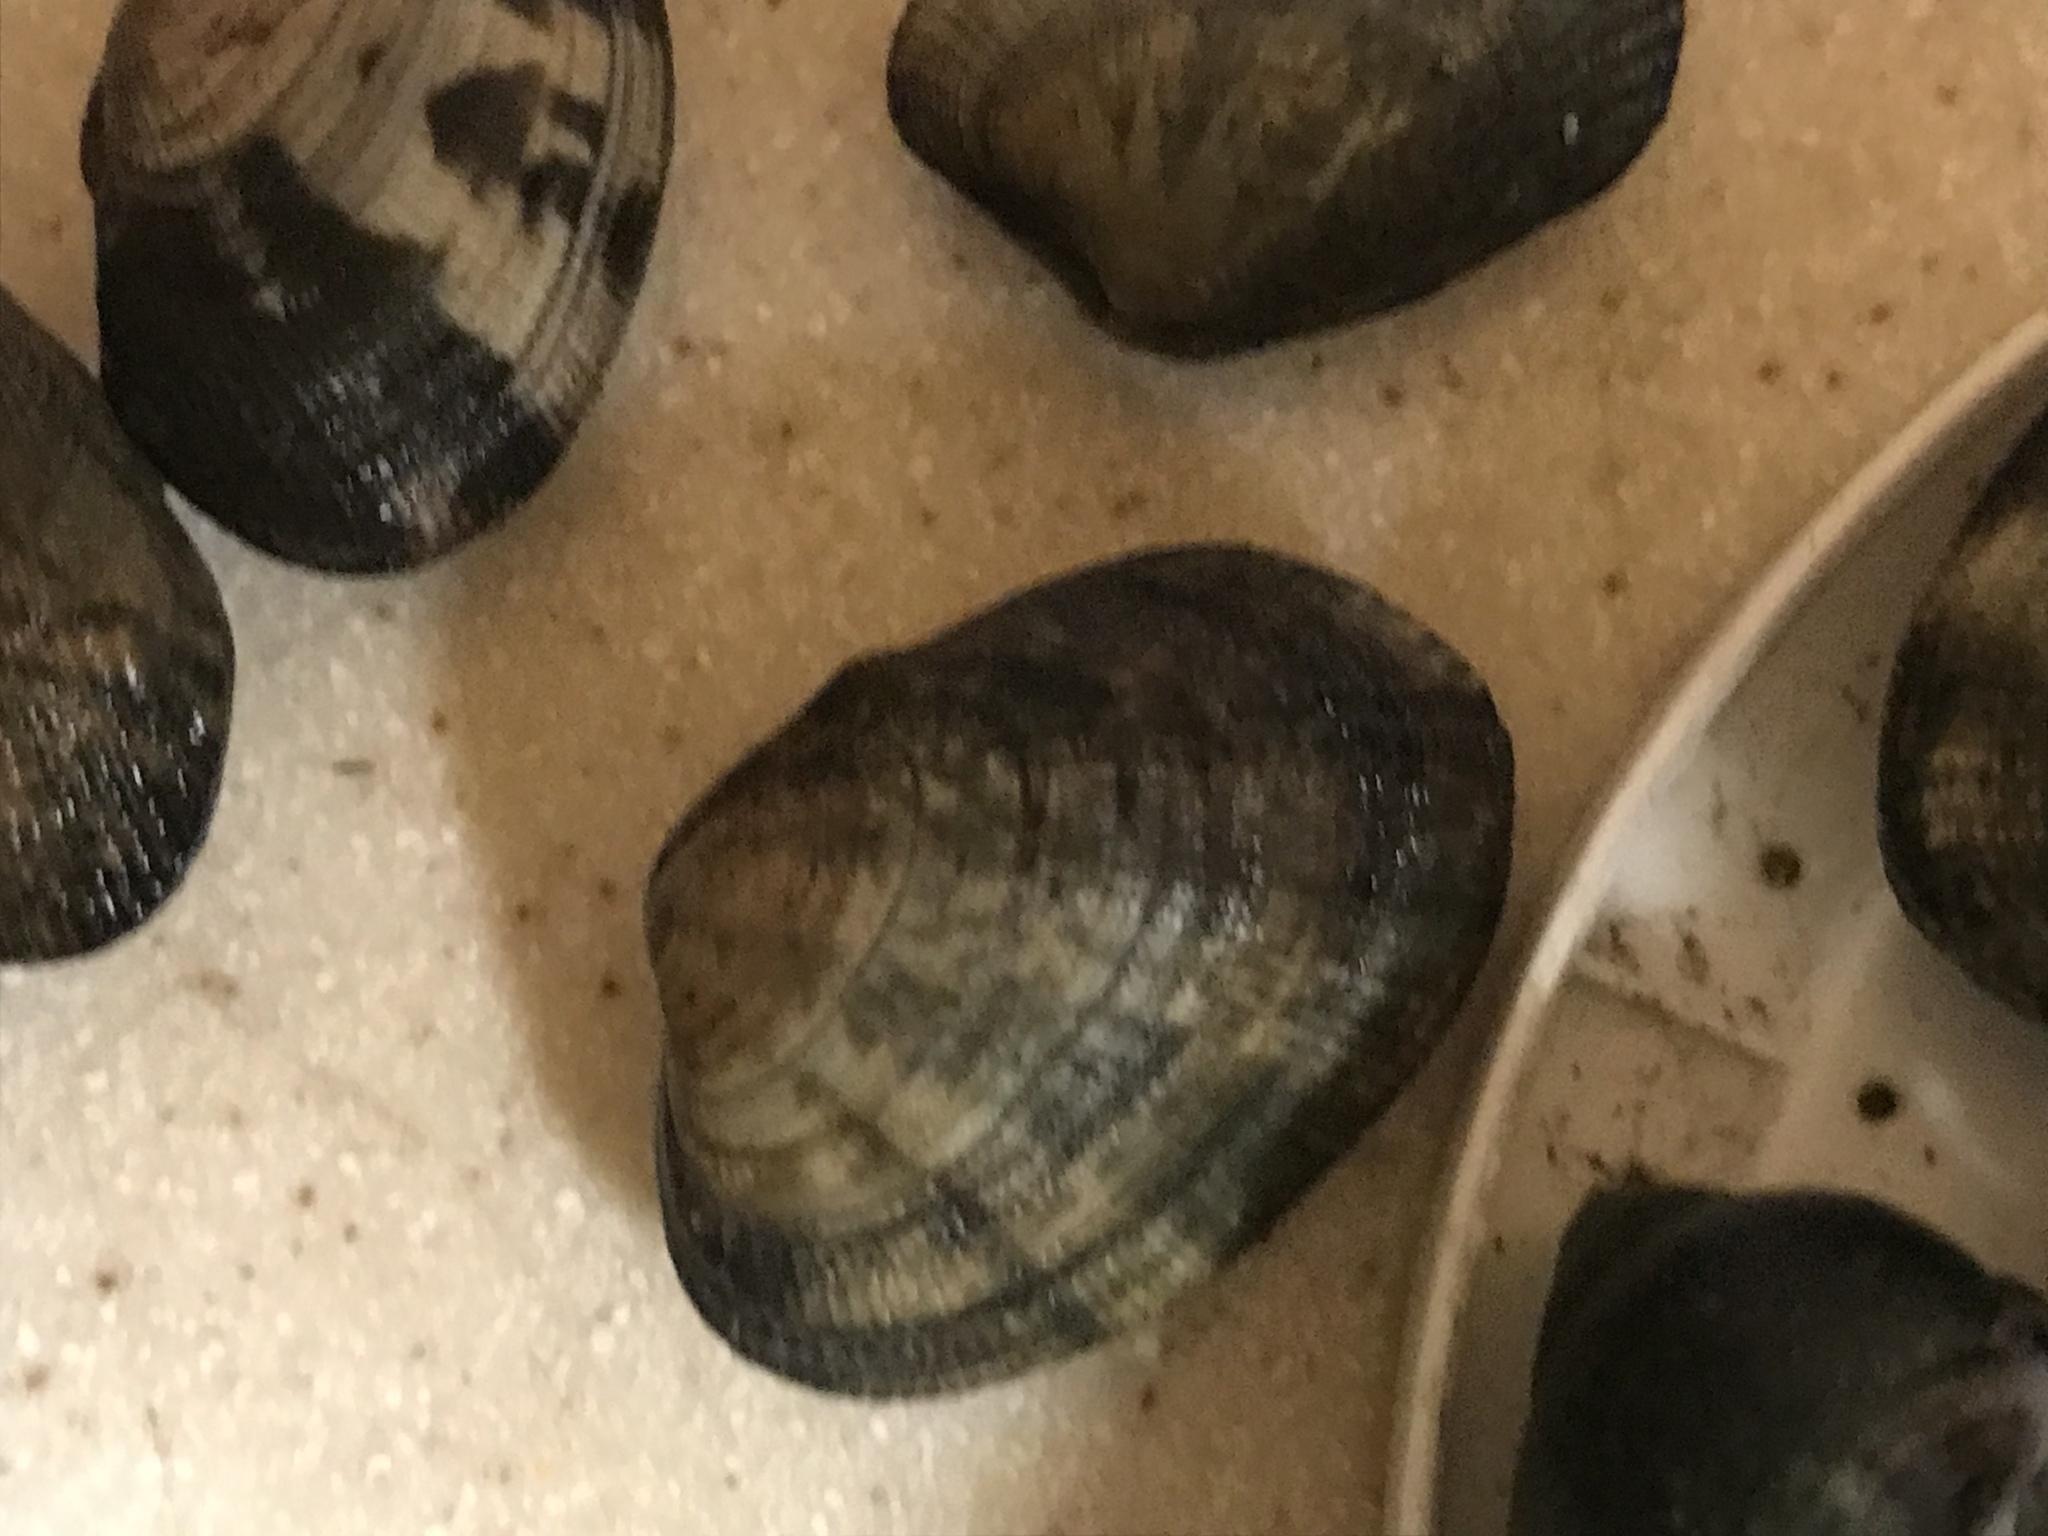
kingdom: Animalia
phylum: Mollusca
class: Bivalvia
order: Venerida
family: Veneridae
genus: Ruditapes
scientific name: Ruditapes philippinarum
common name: Manila clam
